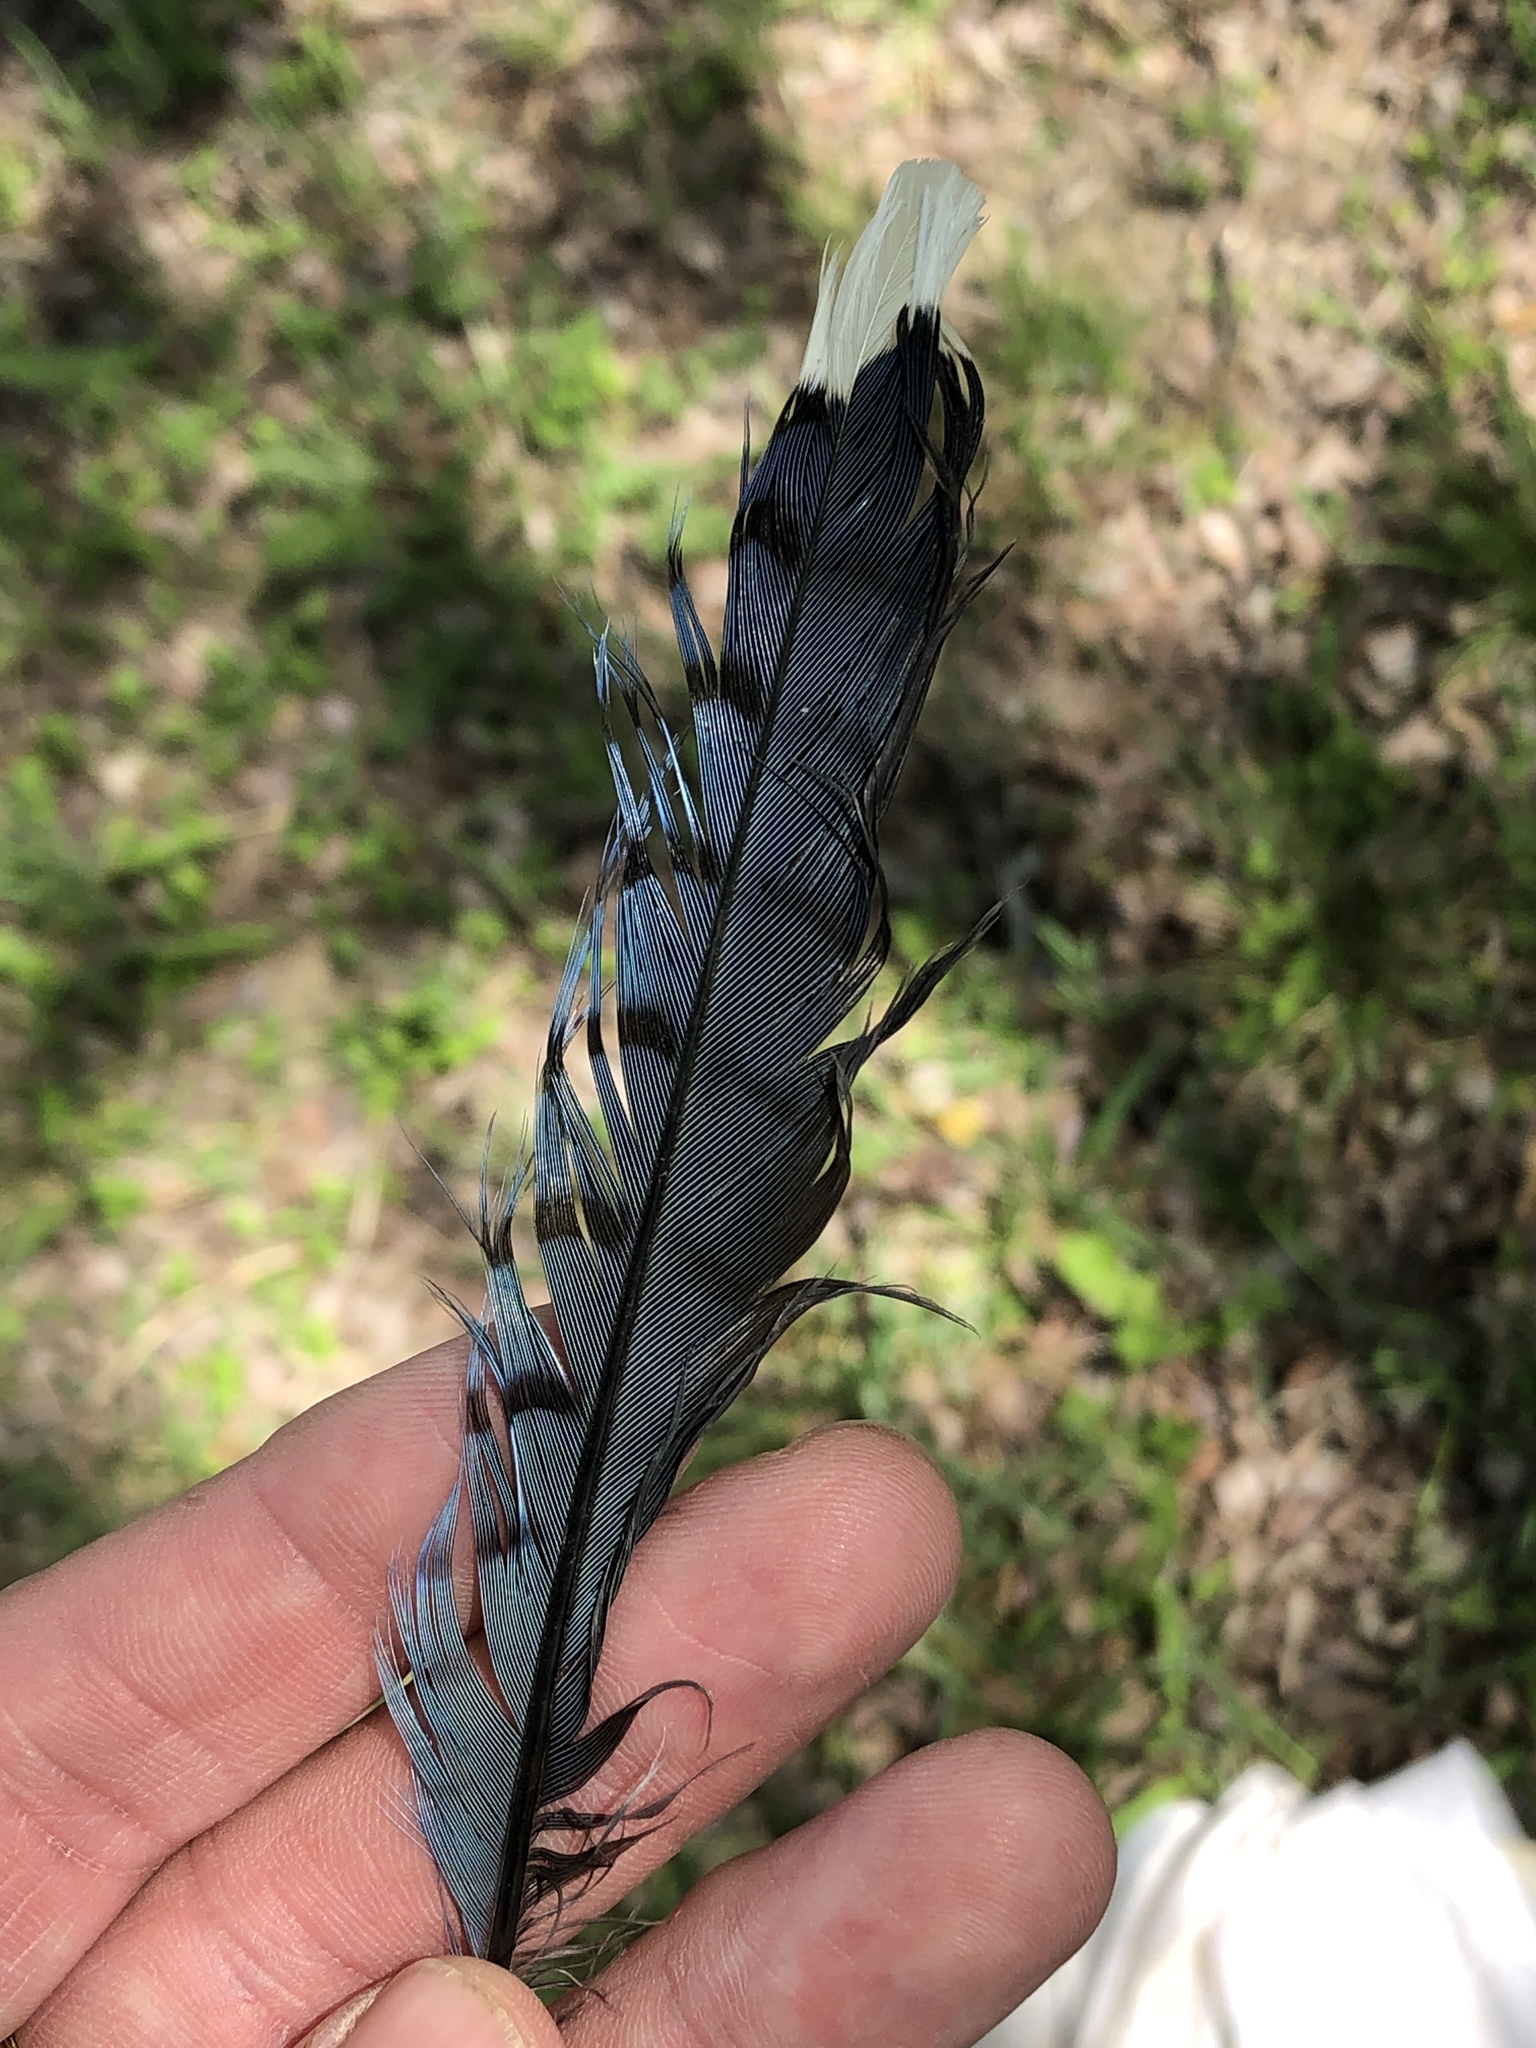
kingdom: Animalia
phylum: Chordata
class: Aves
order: Passeriformes
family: Corvidae
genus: Cyanocitta
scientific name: Cyanocitta cristata
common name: Blue jay
